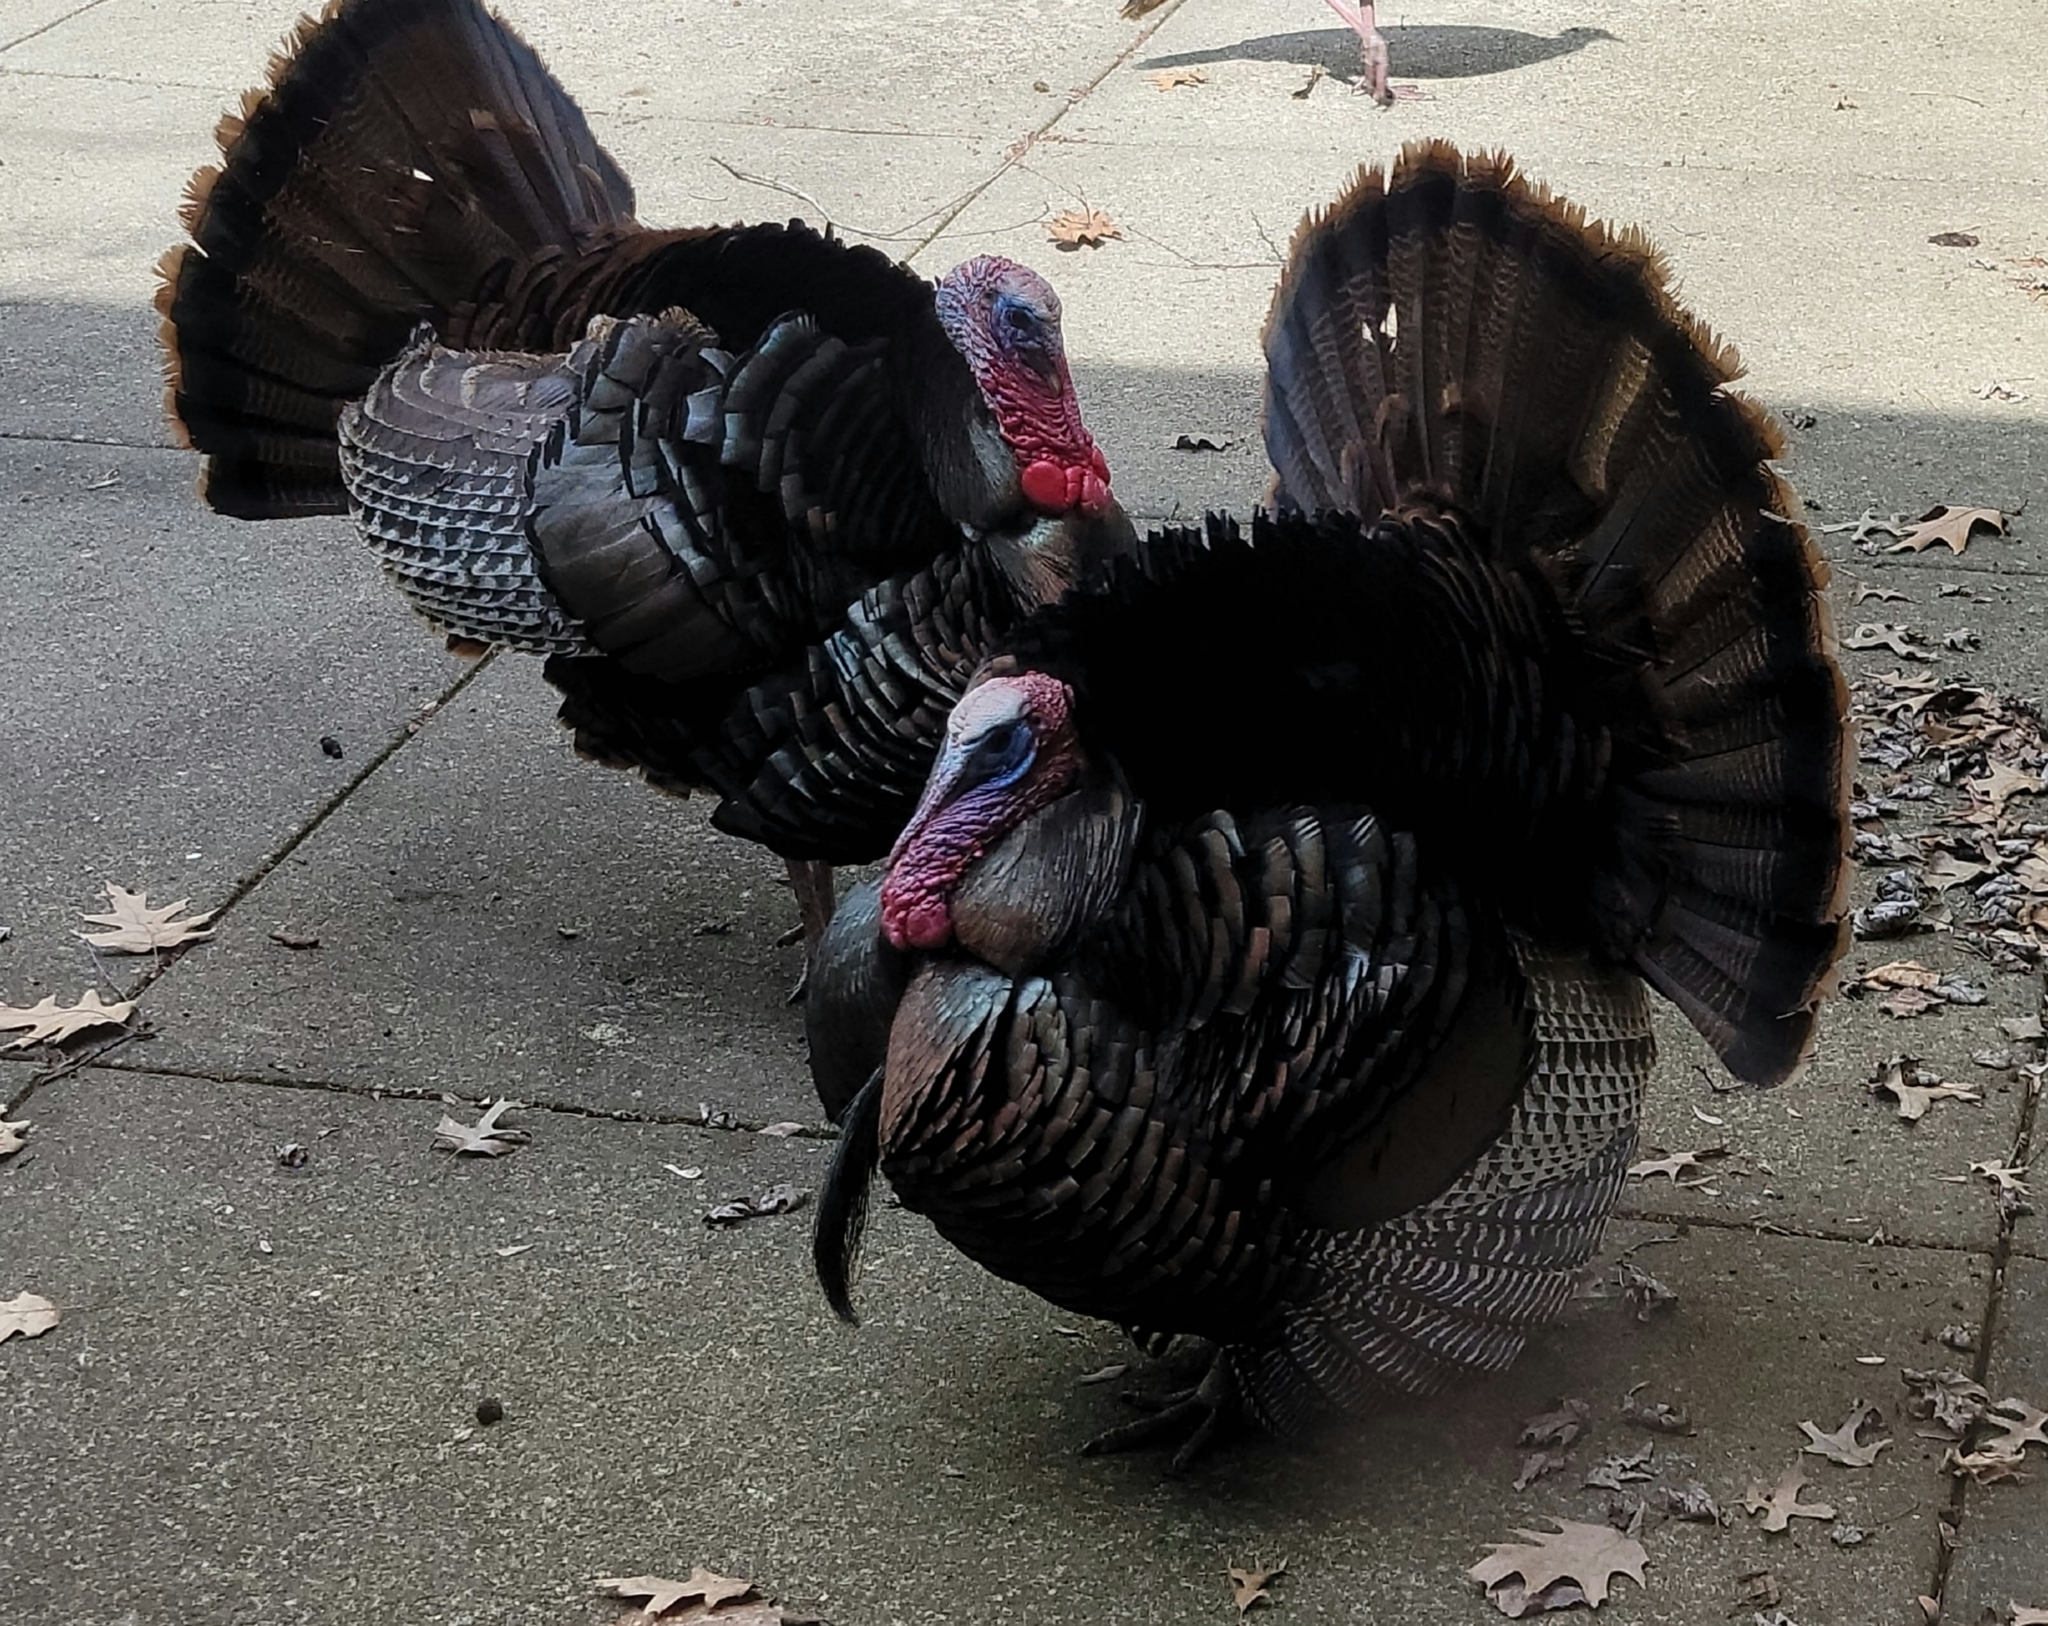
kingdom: Animalia
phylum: Chordata
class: Aves
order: Galliformes
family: Phasianidae
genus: Meleagris
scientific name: Meleagris gallopavo
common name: Wild turkey
